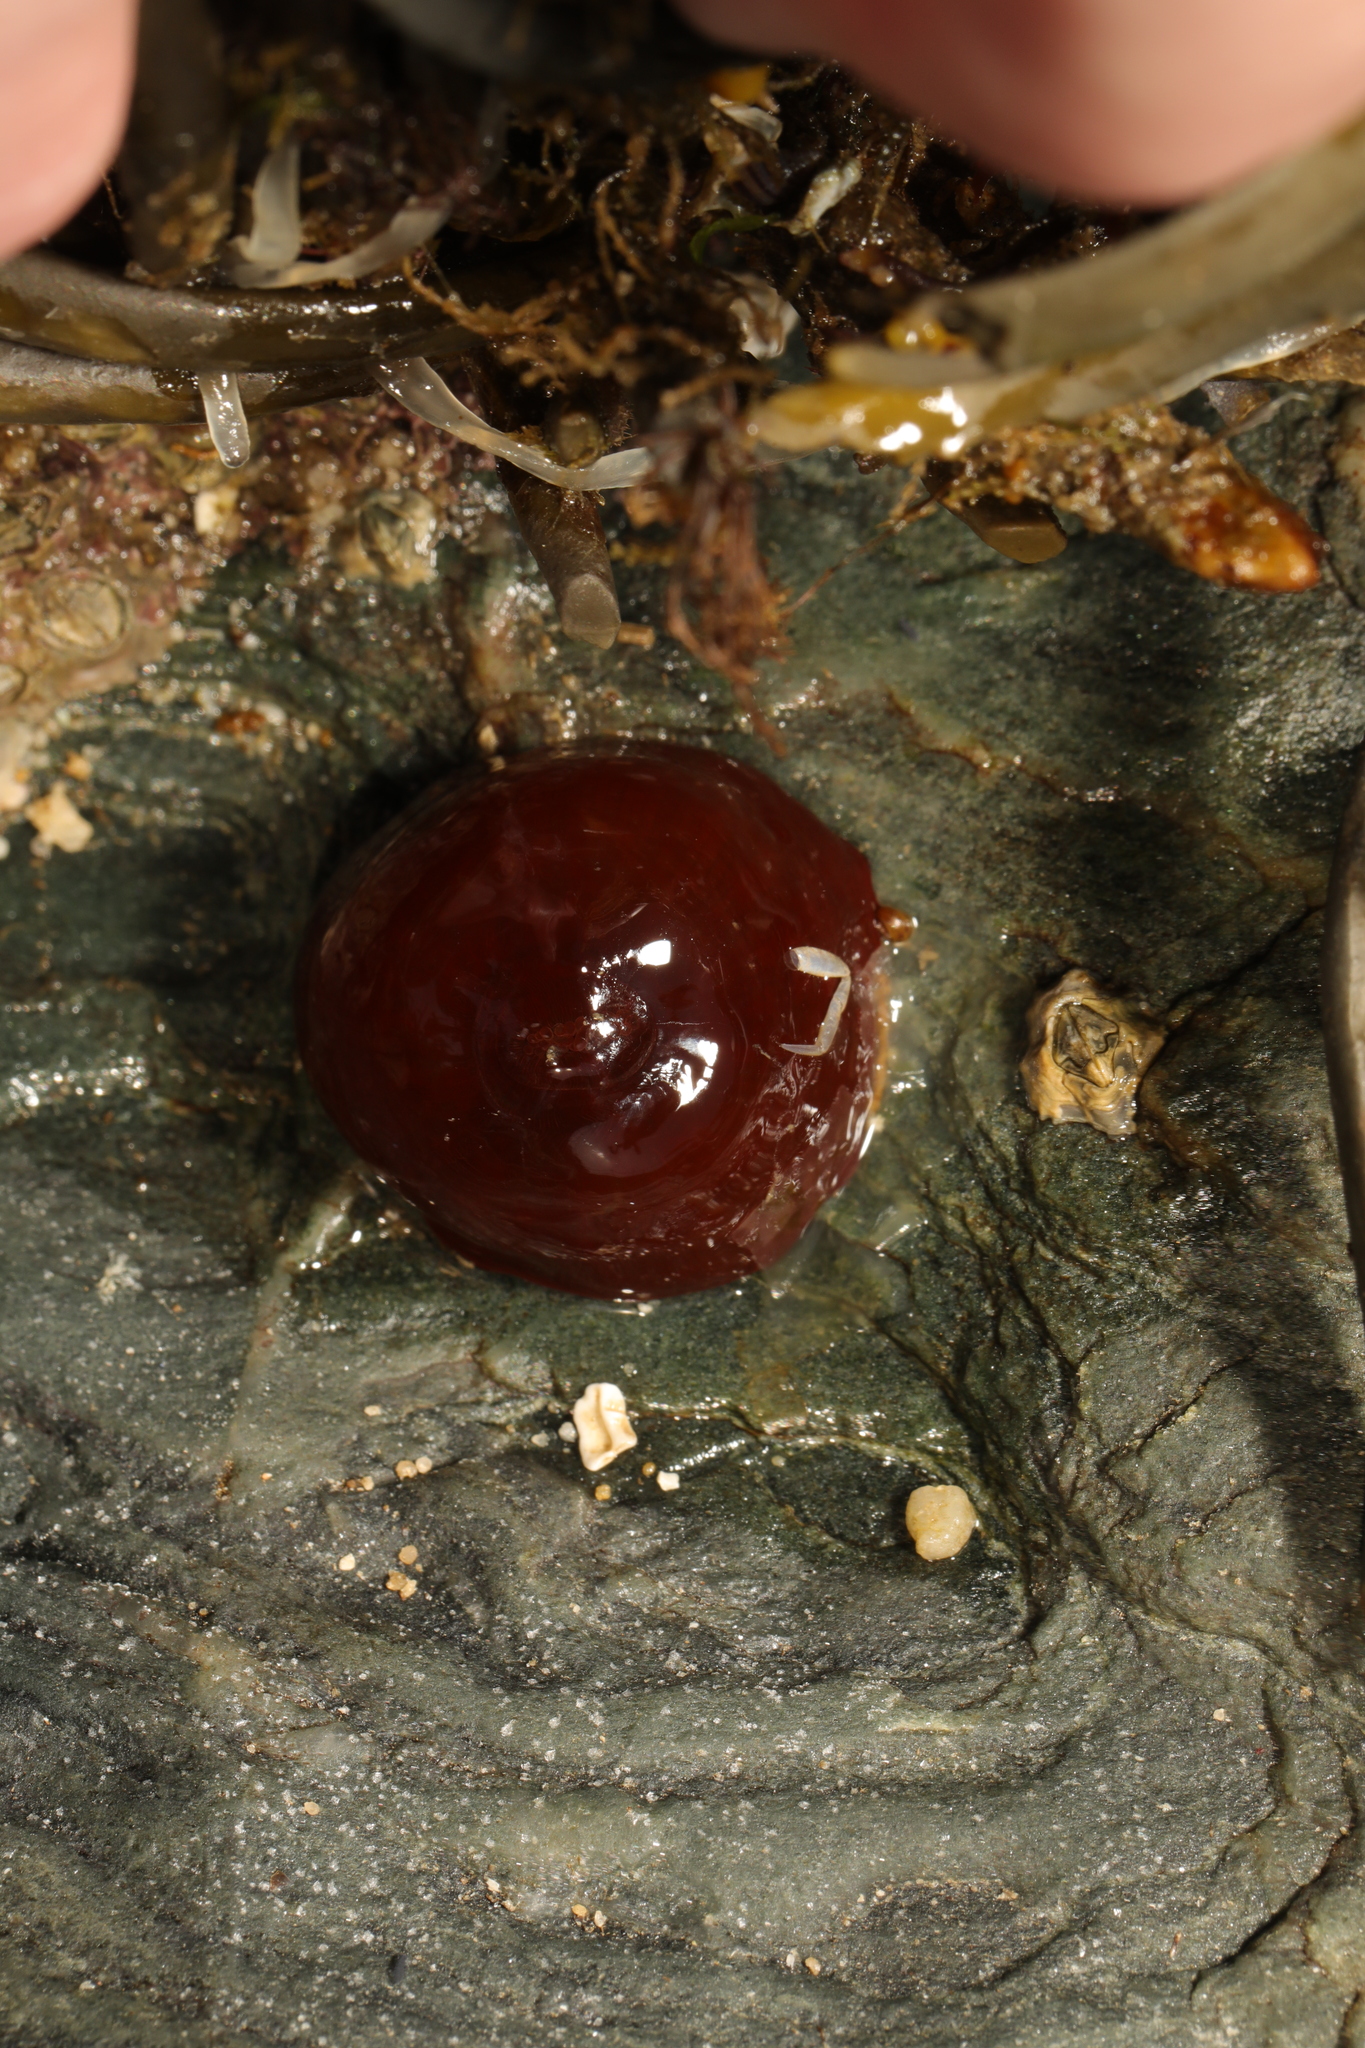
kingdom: Animalia
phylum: Cnidaria
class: Anthozoa
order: Actiniaria
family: Actiniidae
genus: Actinia
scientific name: Actinia equina
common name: Beadlet anemone
